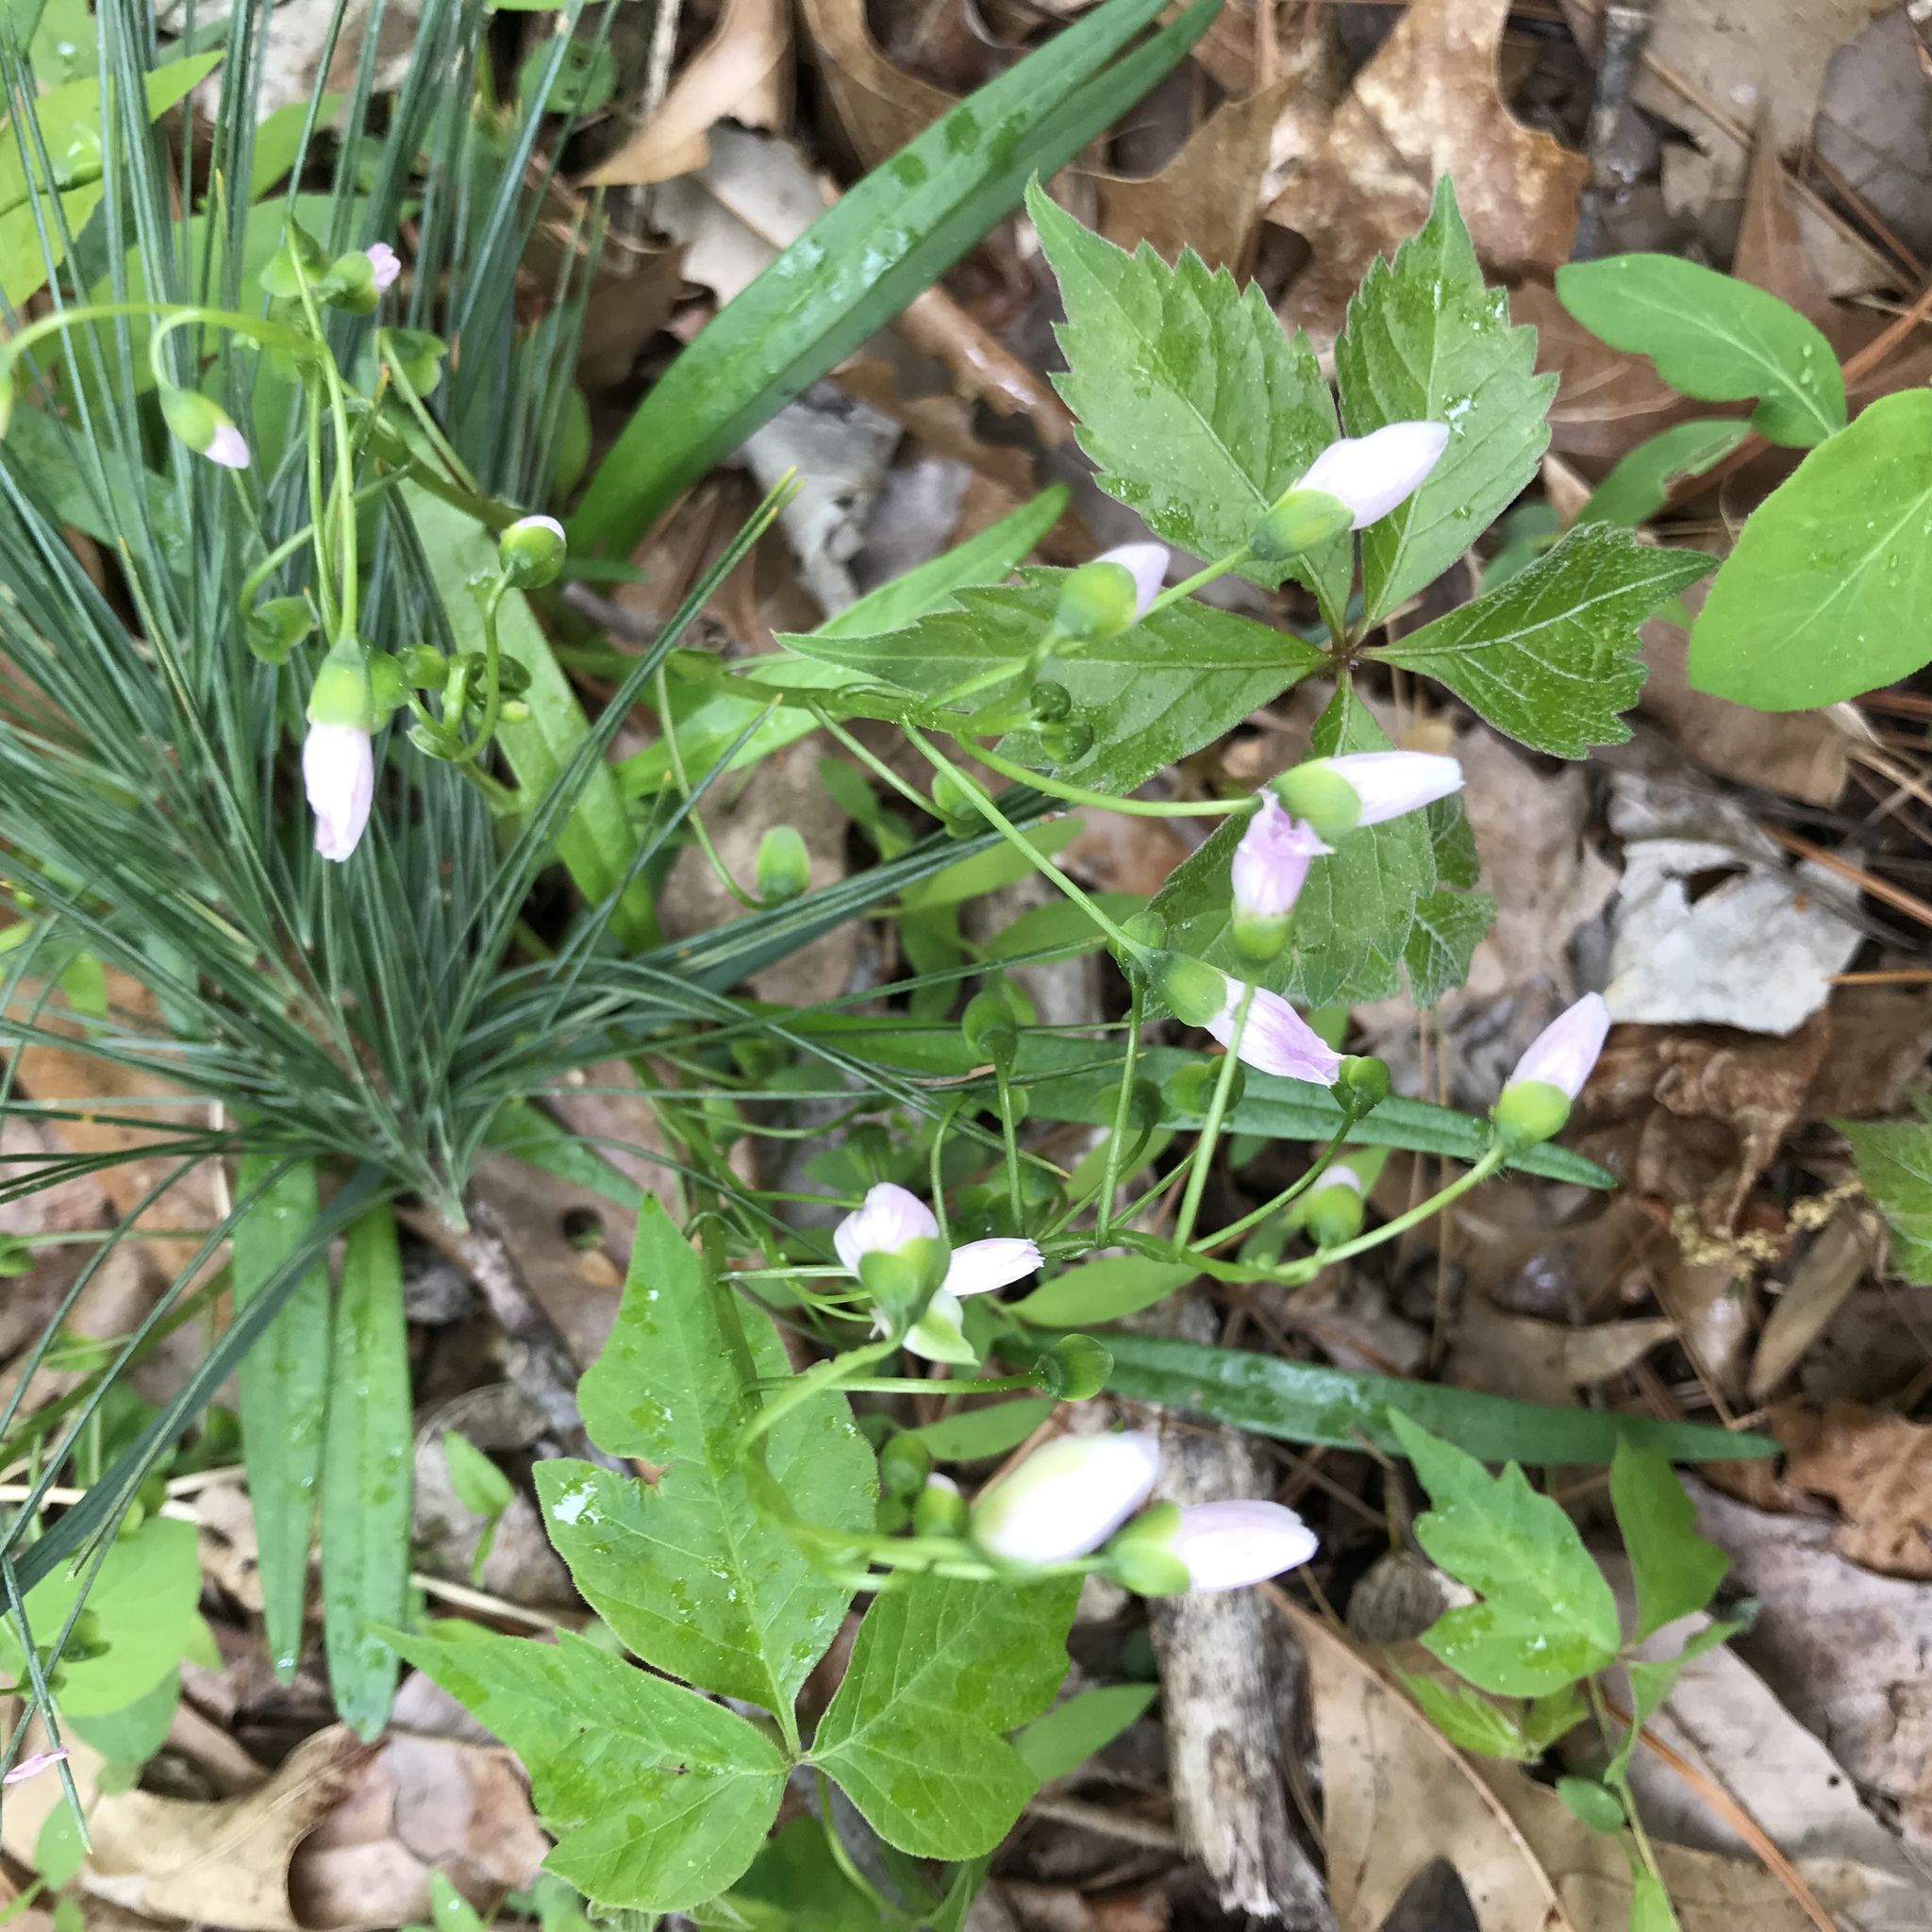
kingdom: Plantae
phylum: Tracheophyta
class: Magnoliopsida
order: Caryophyllales
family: Montiaceae
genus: Claytonia
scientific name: Claytonia virginica
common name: Virginia springbeauty
